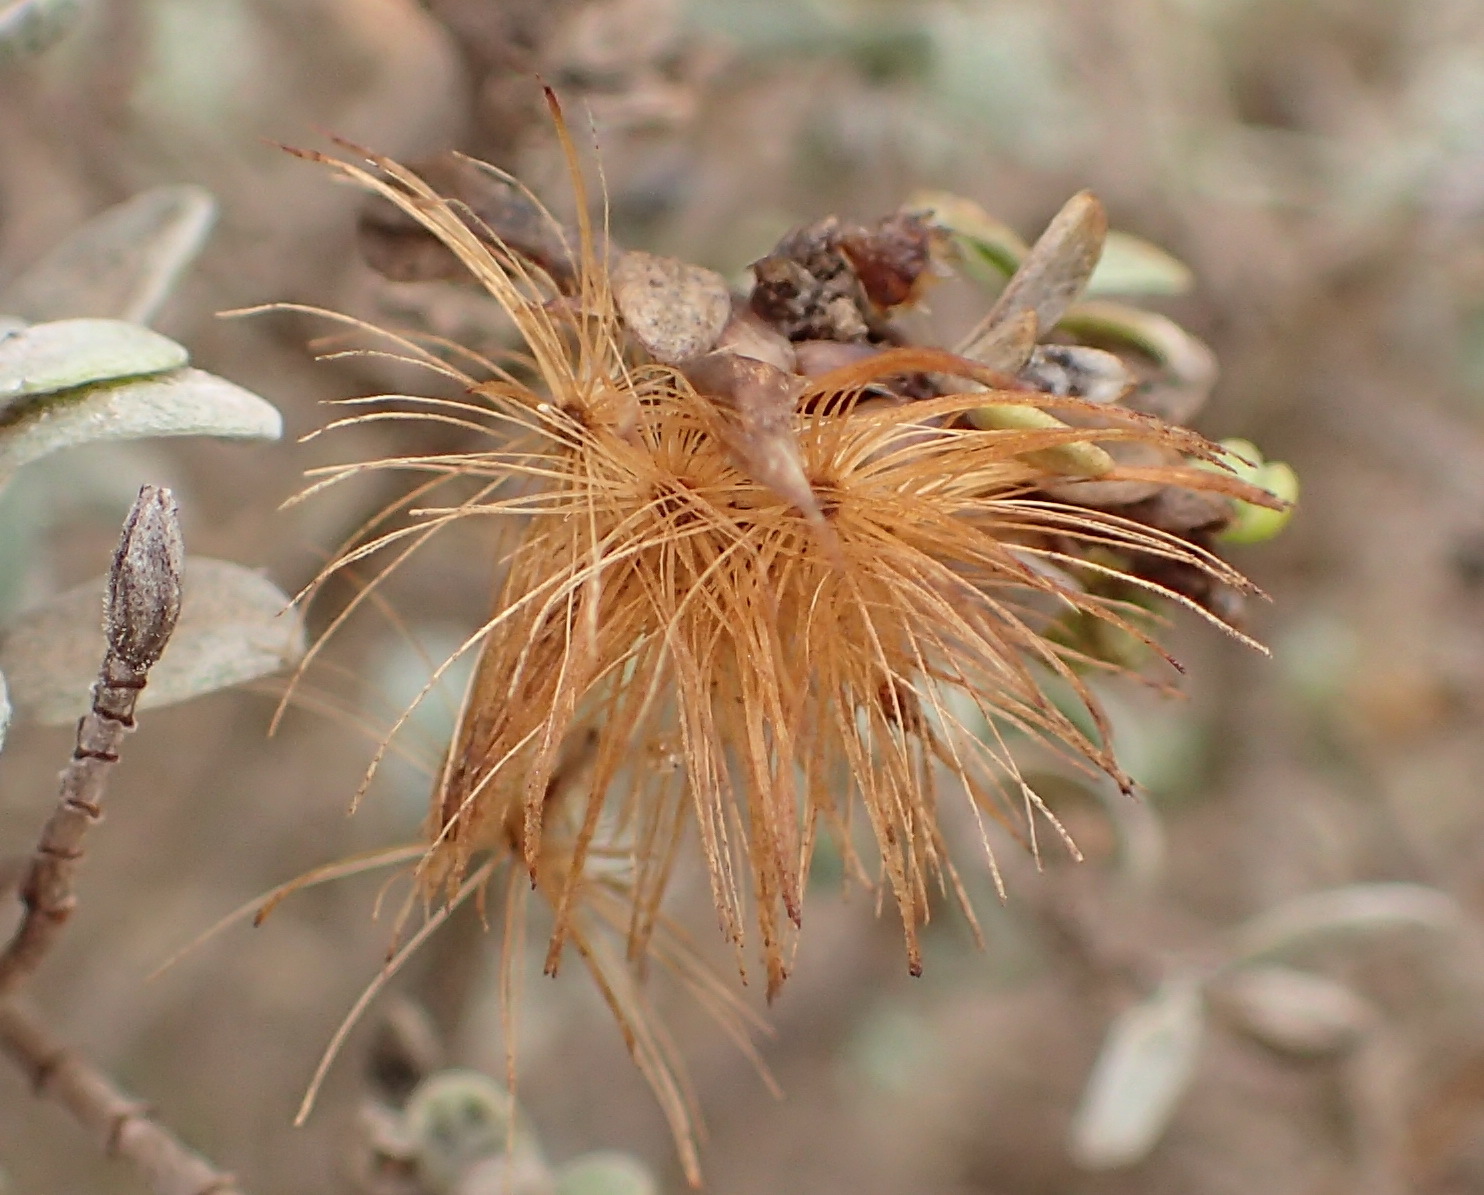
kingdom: Plantae
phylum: Tracheophyta
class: Magnoliopsida
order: Asterales
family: Asteraceae
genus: Pteronia
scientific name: Pteronia incana
